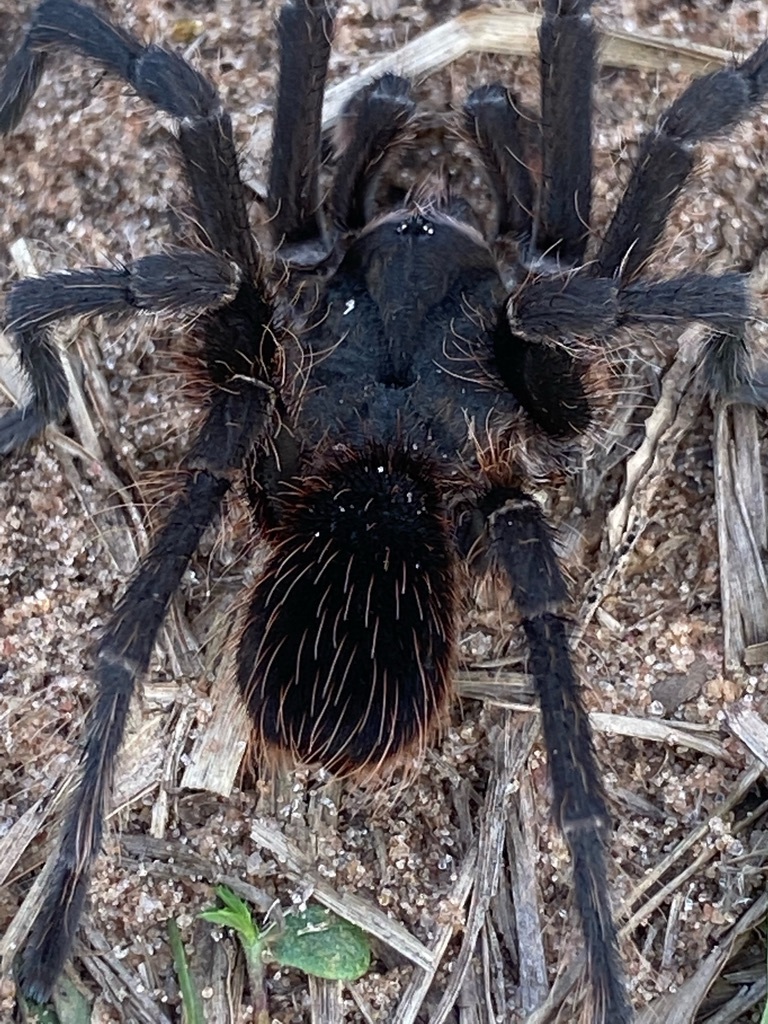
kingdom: Animalia
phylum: Arthropoda
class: Arachnida
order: Araneae
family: Theraphosidae
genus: Acanthoscurria
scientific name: Acanthoscurria cordubensis
